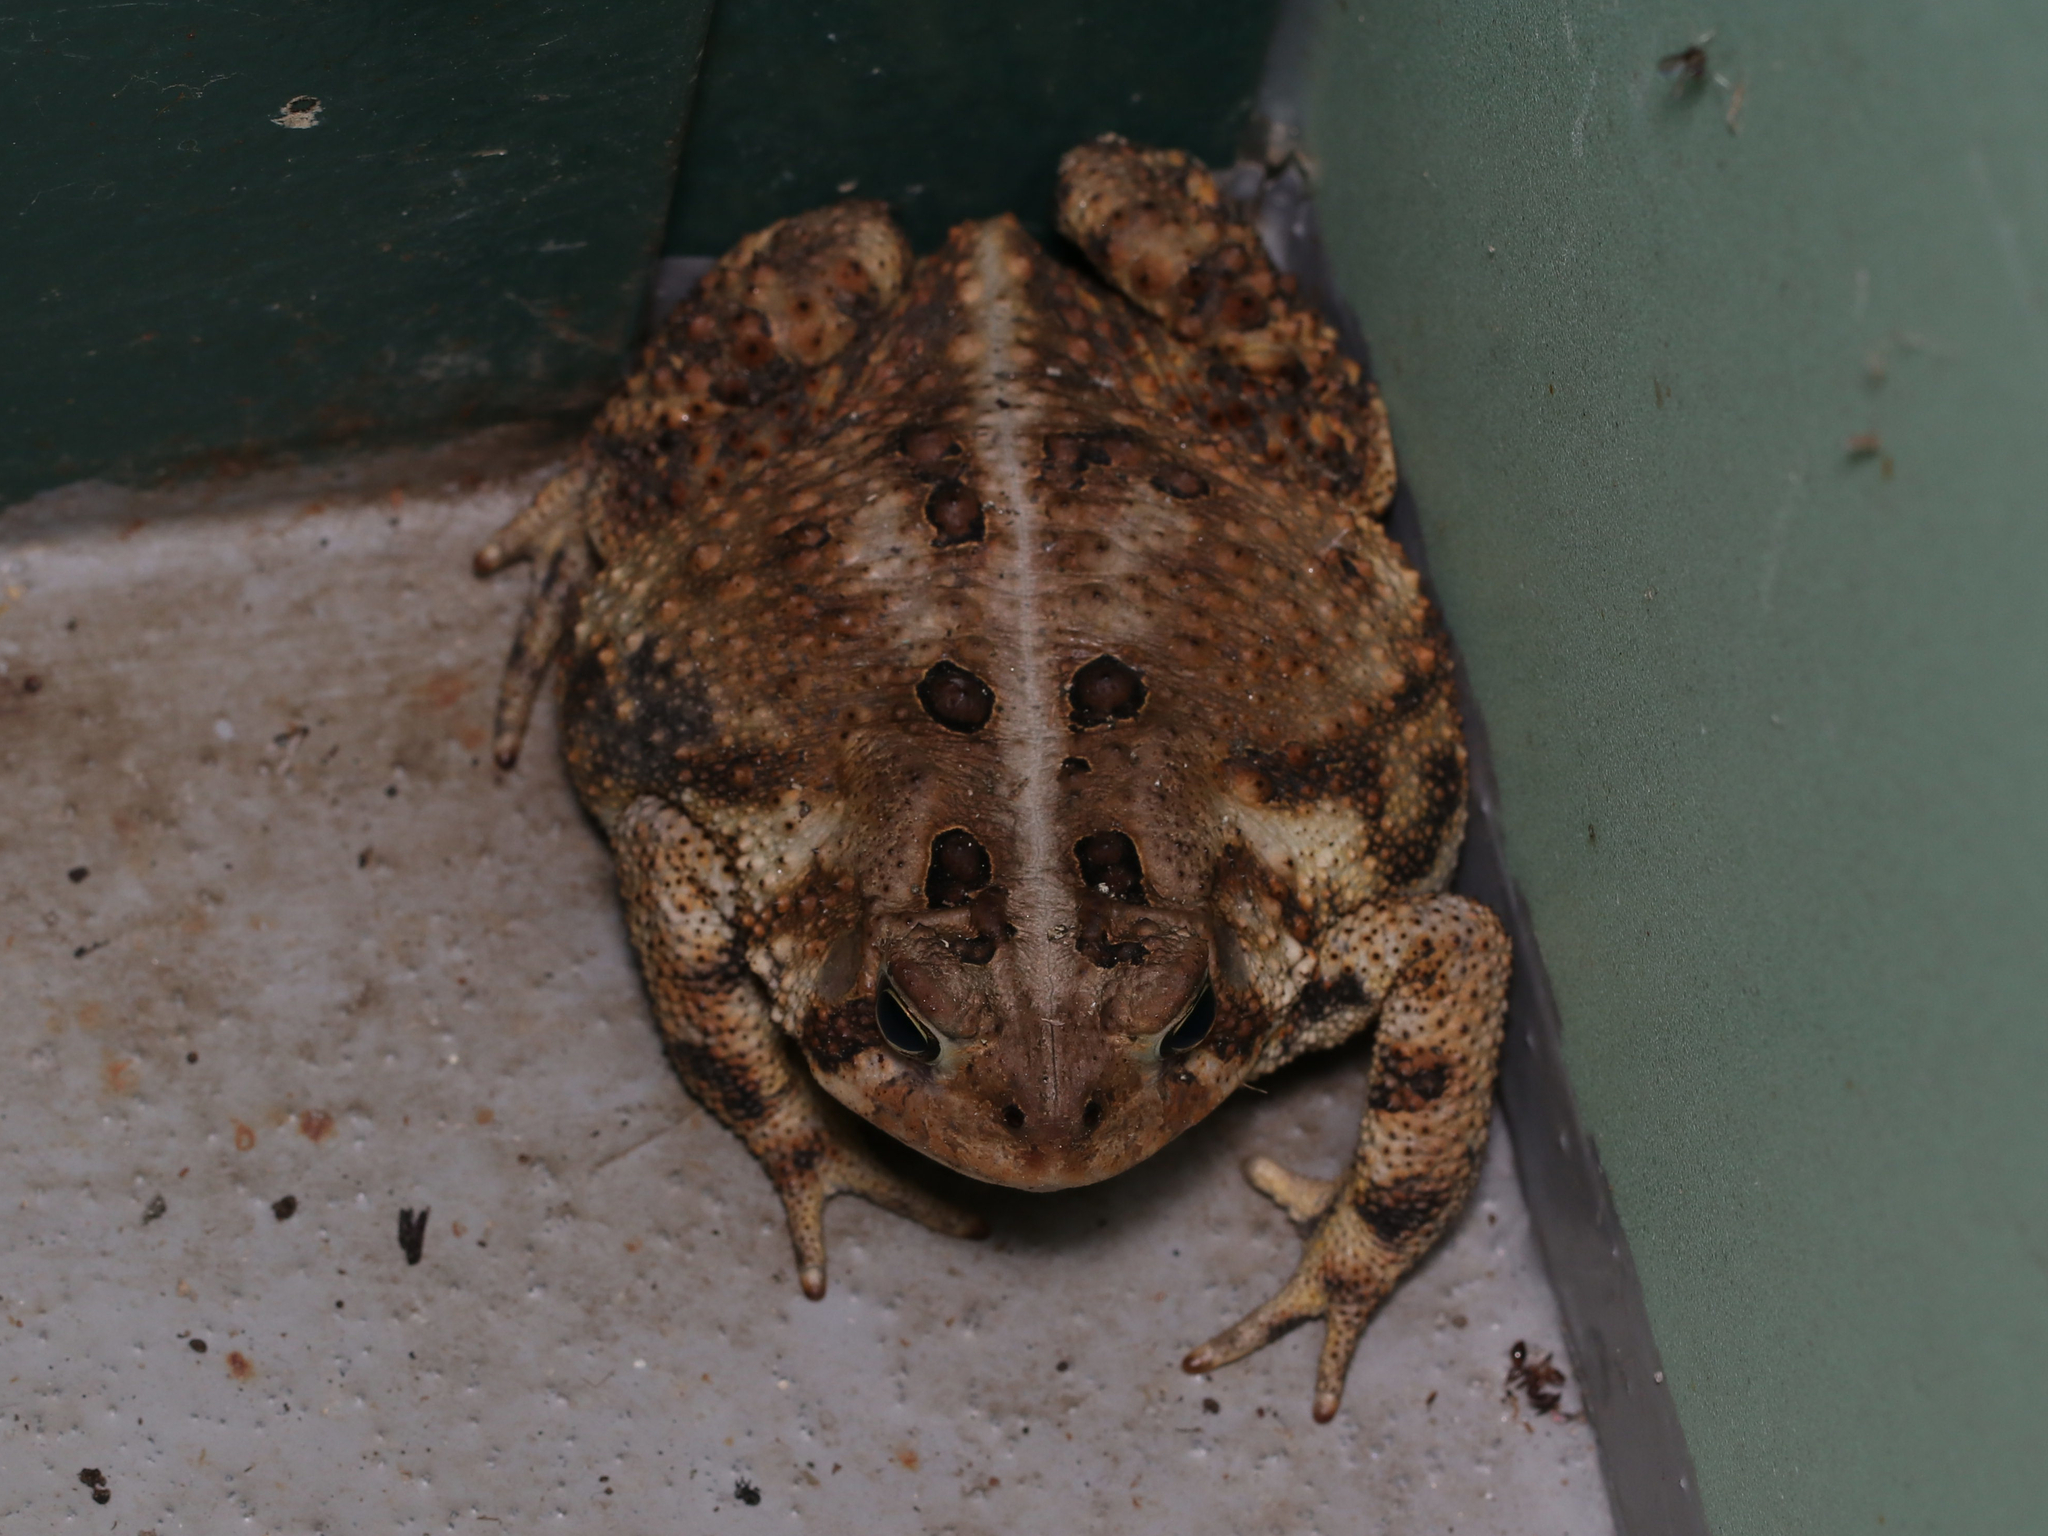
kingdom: Animalia
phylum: Chordata
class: Amphibia
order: Anura
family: Bufonidae
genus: Anaxyrus
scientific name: Anaxyrus americanus
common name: American toad
